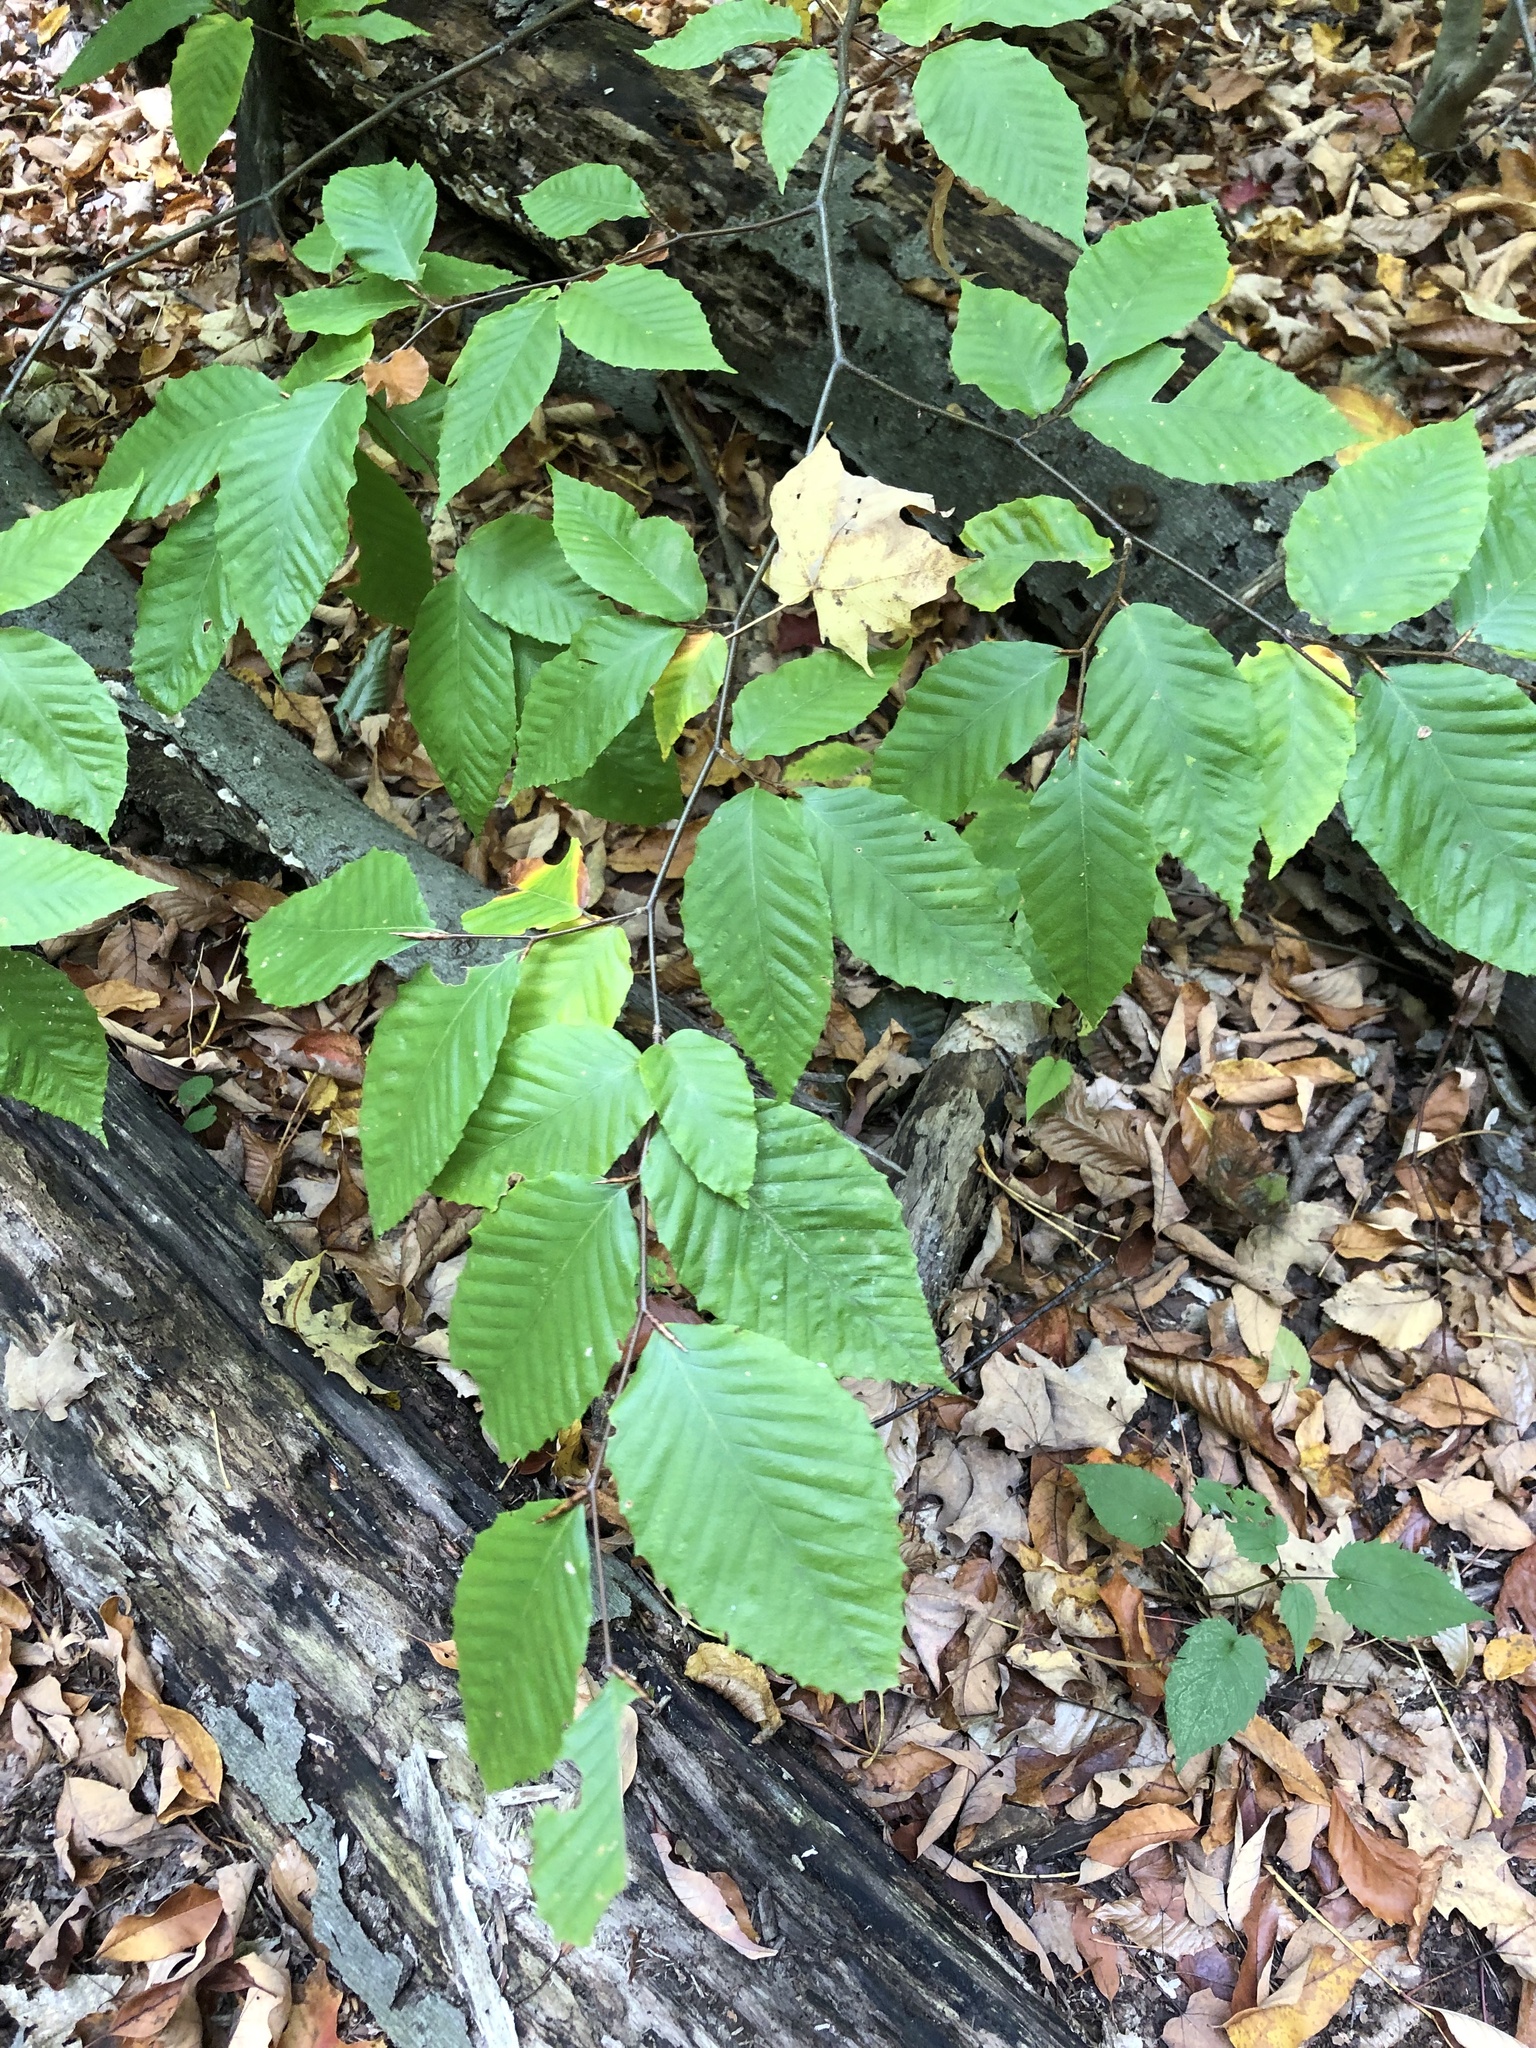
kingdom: Plantae
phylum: Tracheophyta
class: Magnoliopsida
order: Fagales
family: Fagaceae
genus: Fagus
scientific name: Fagus grandifolia
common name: American beech
